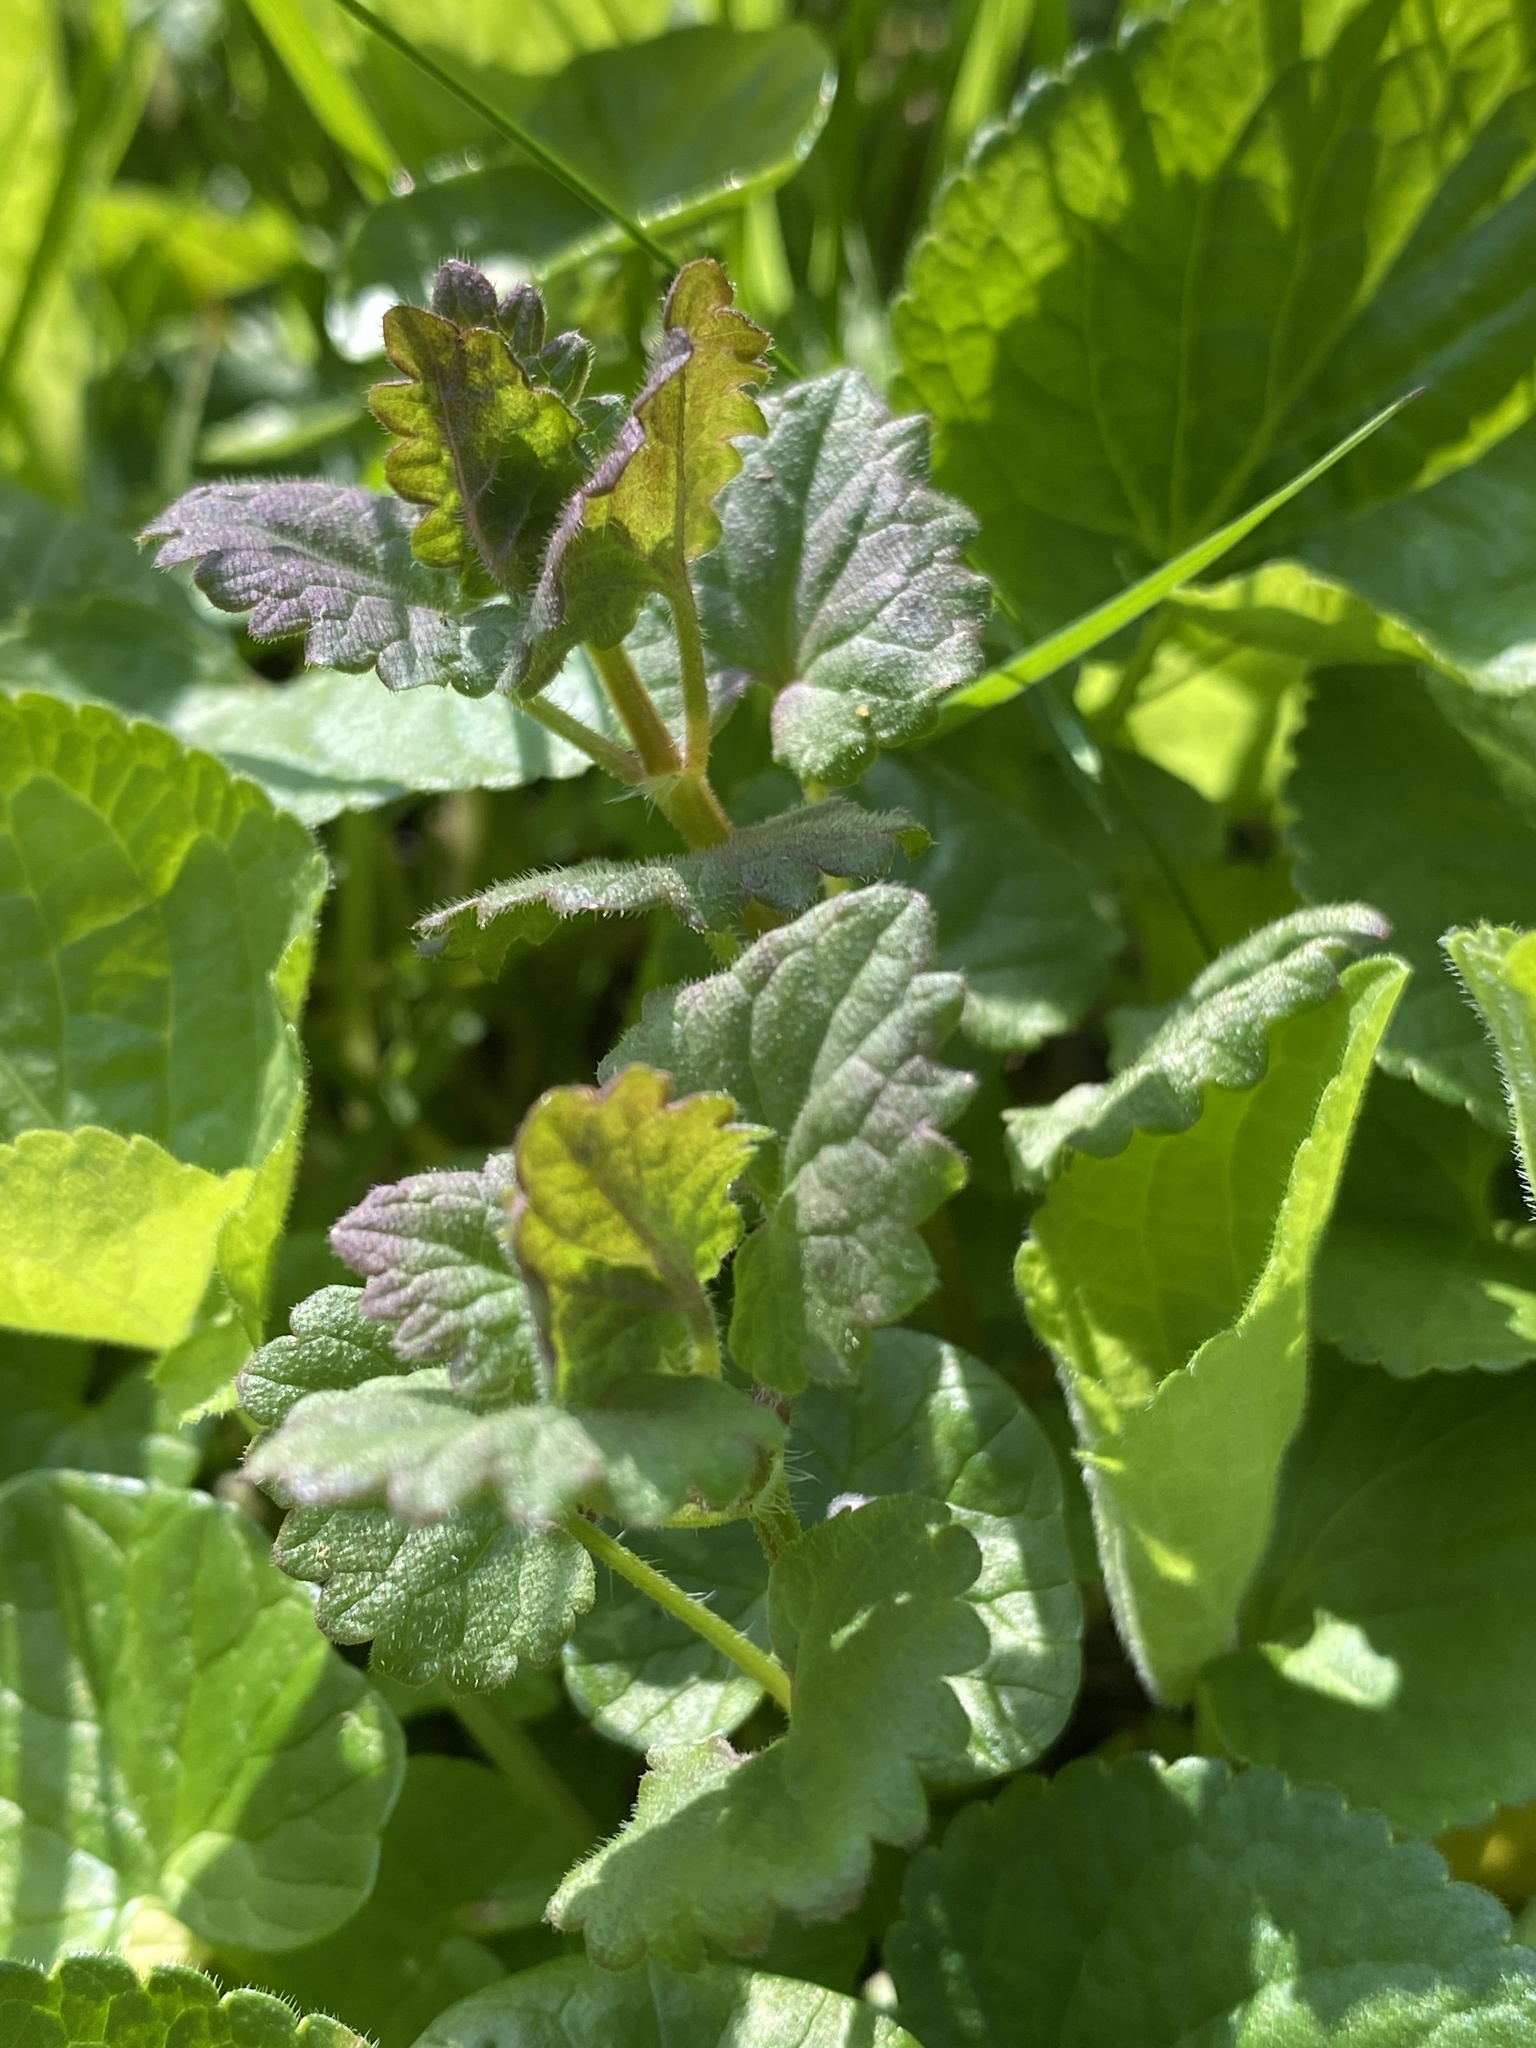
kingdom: Plantae
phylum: Tracheophyta
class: Magnoliopsida
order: Lamiales
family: Lamiaceae
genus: Glechoma
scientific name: Glechoma hederacea
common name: Ground ivy
